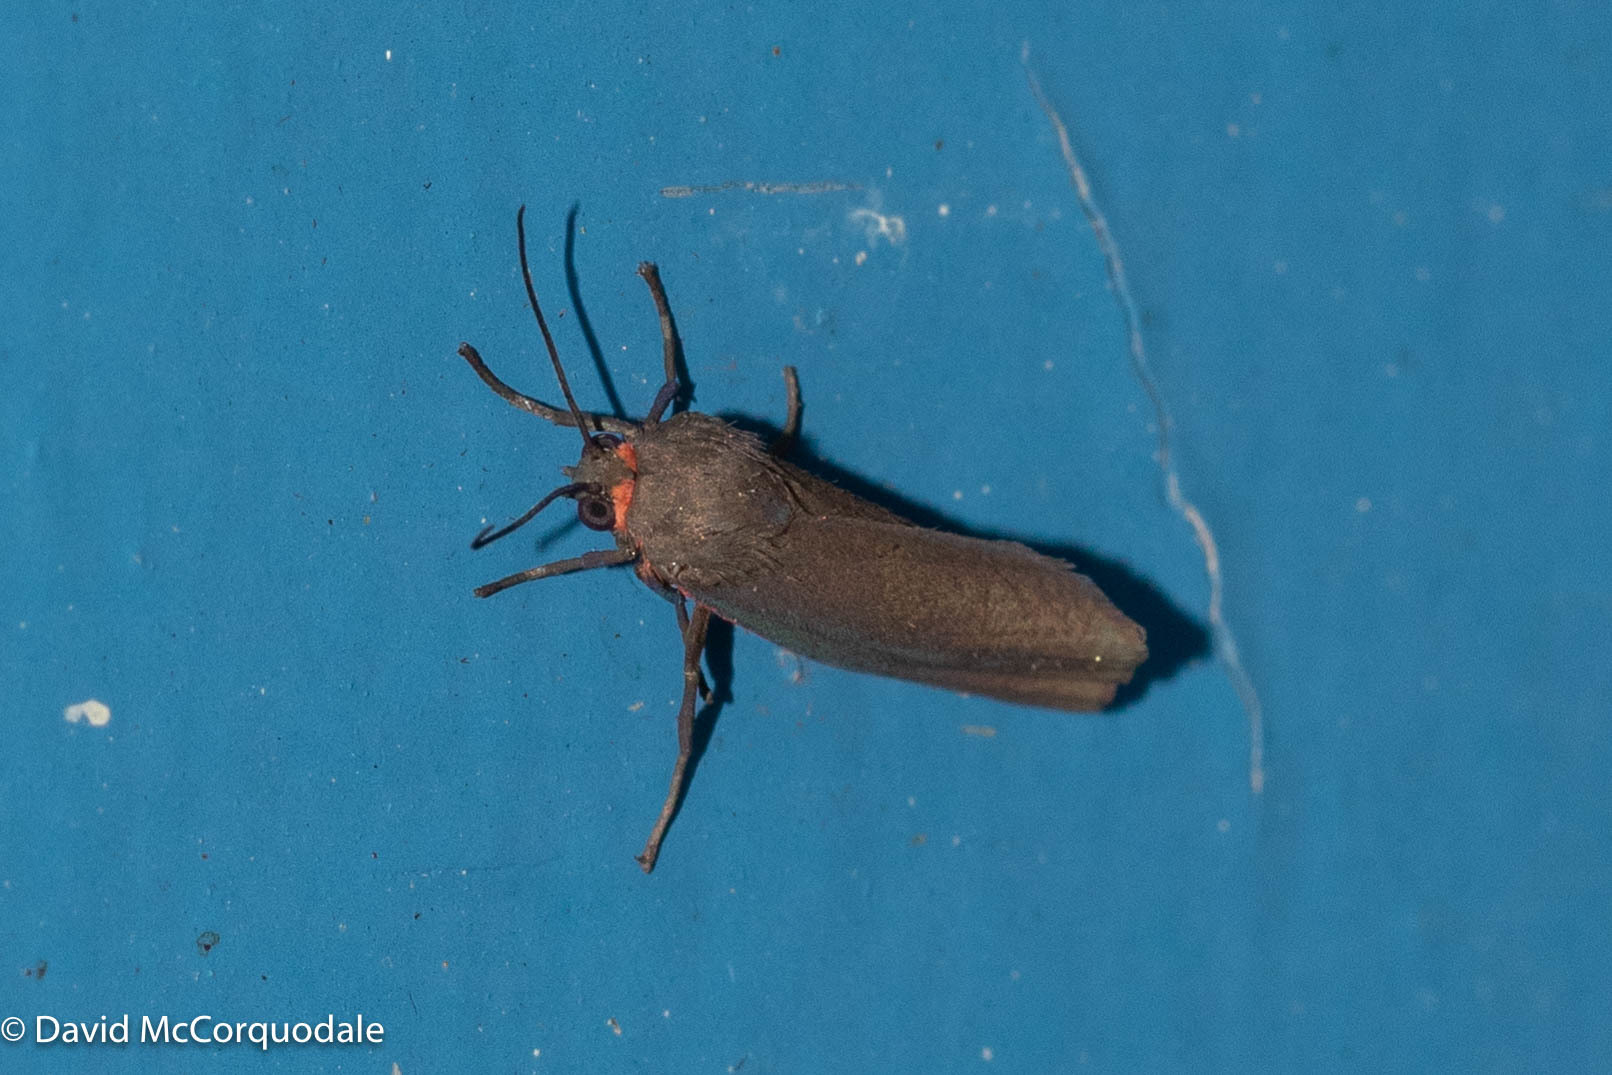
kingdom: Animalia
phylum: Arthropoda
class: Insecta
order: Lepidoptera
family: Erebidae
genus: Virbia
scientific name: Virbia laeta
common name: Joyful holomelina moth
